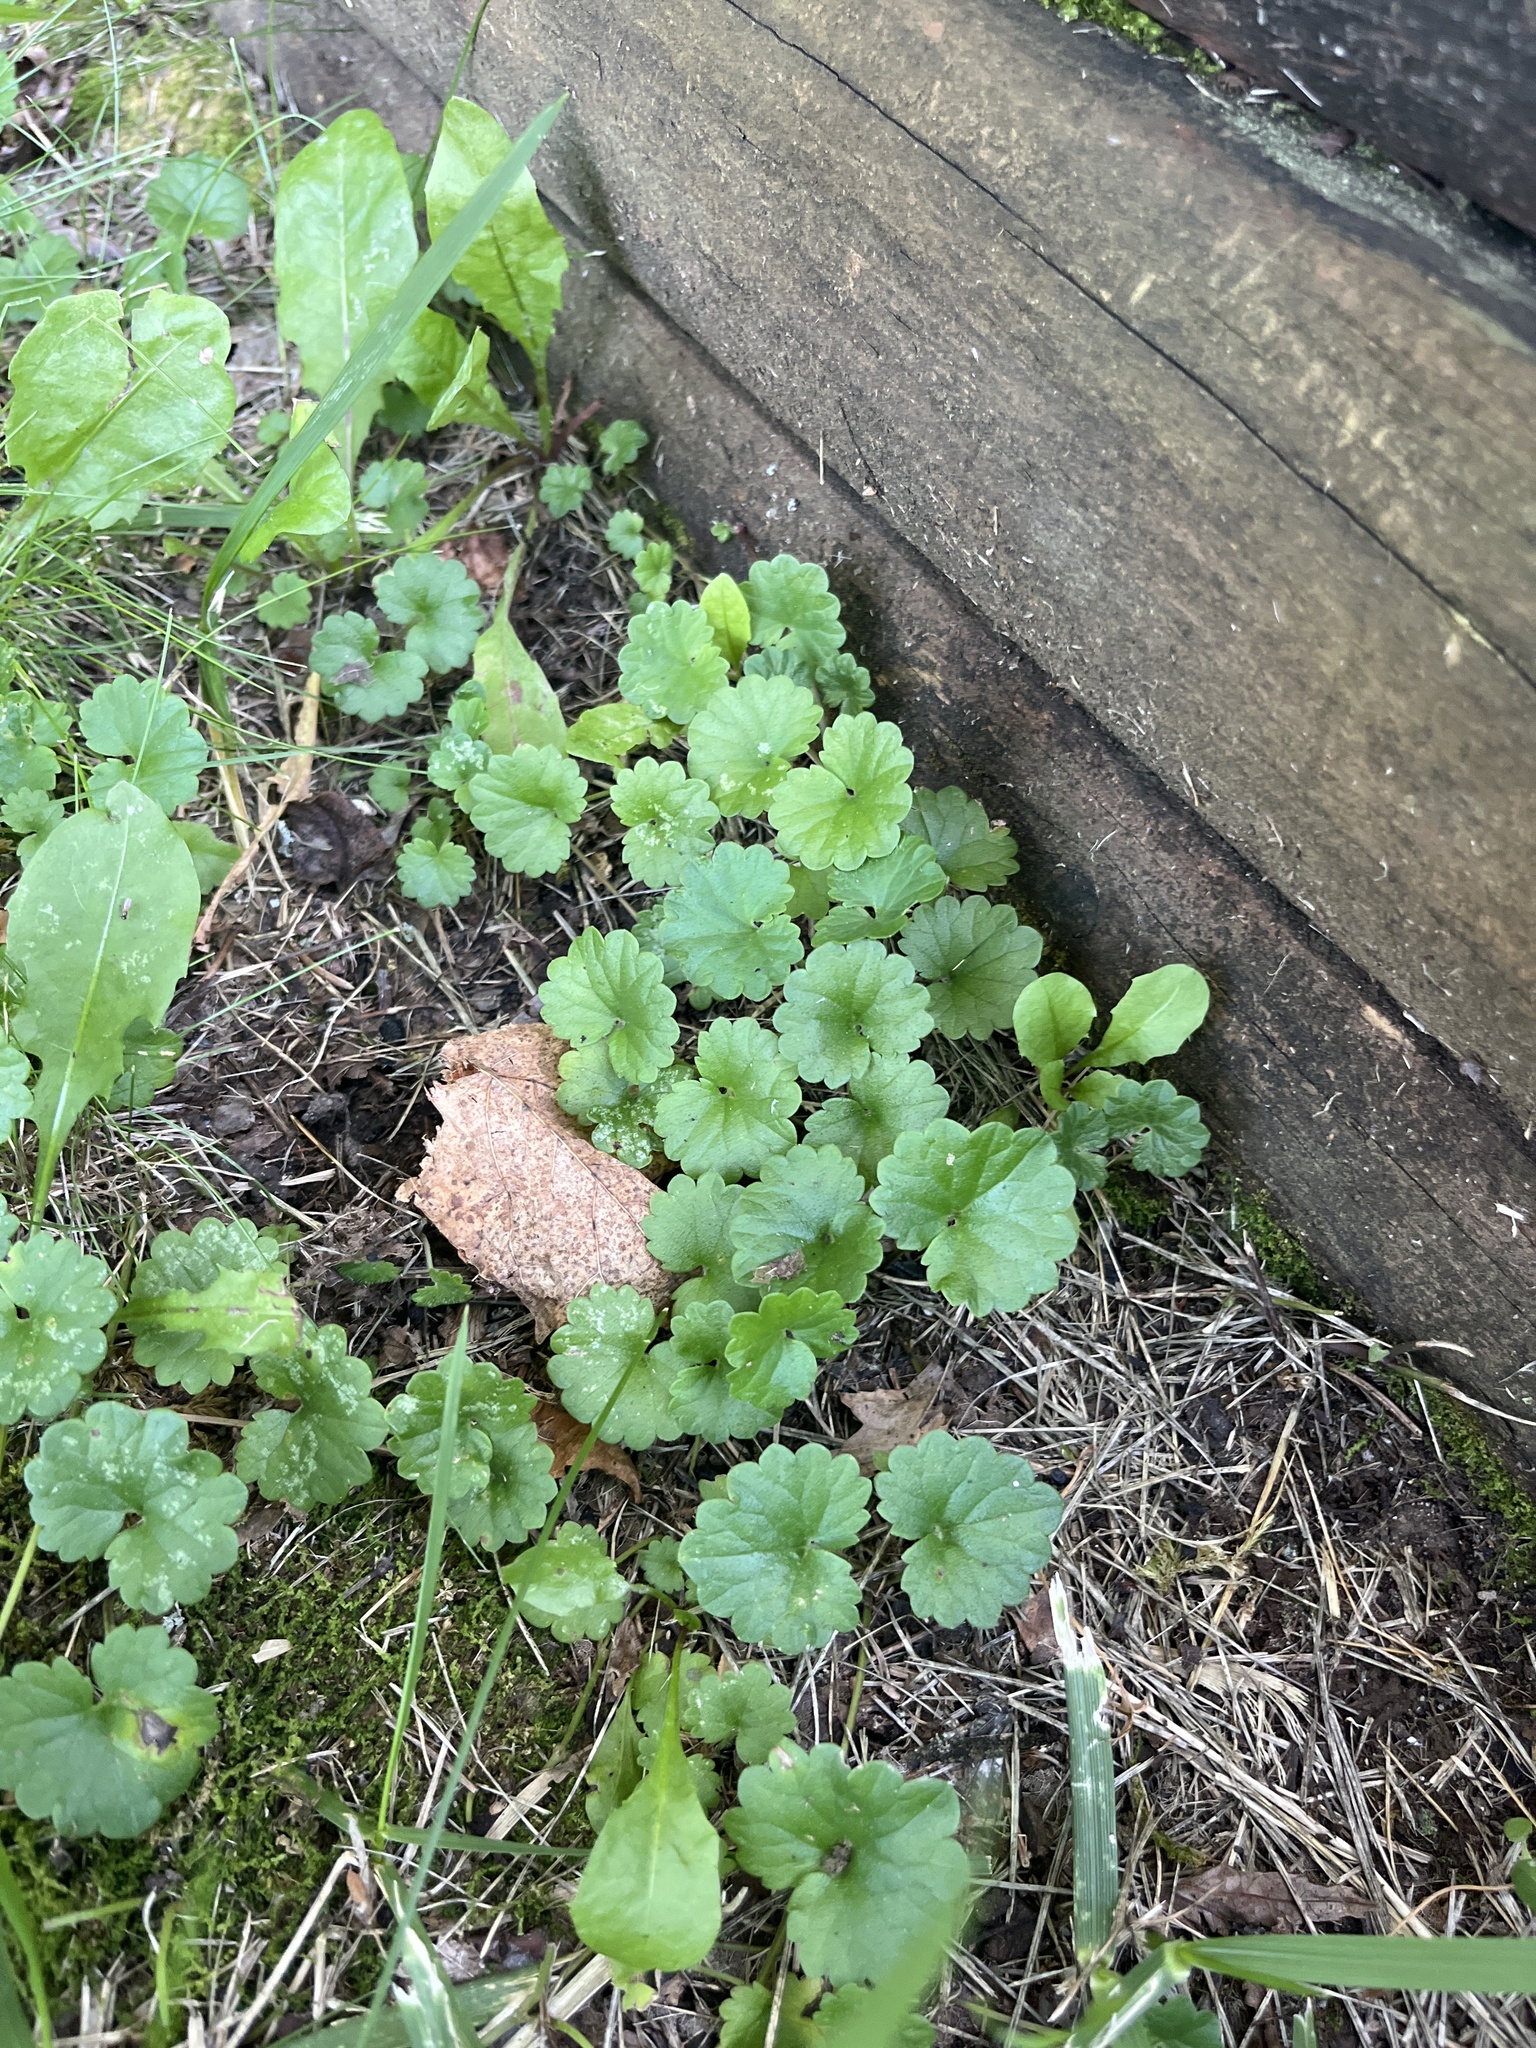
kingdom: Plantae
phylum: Tracheophyta
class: Magnoliopsida
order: Lamiales
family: Lamiaceae
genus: Glechoma
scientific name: Glechoma hederacea
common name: Ground ivy
